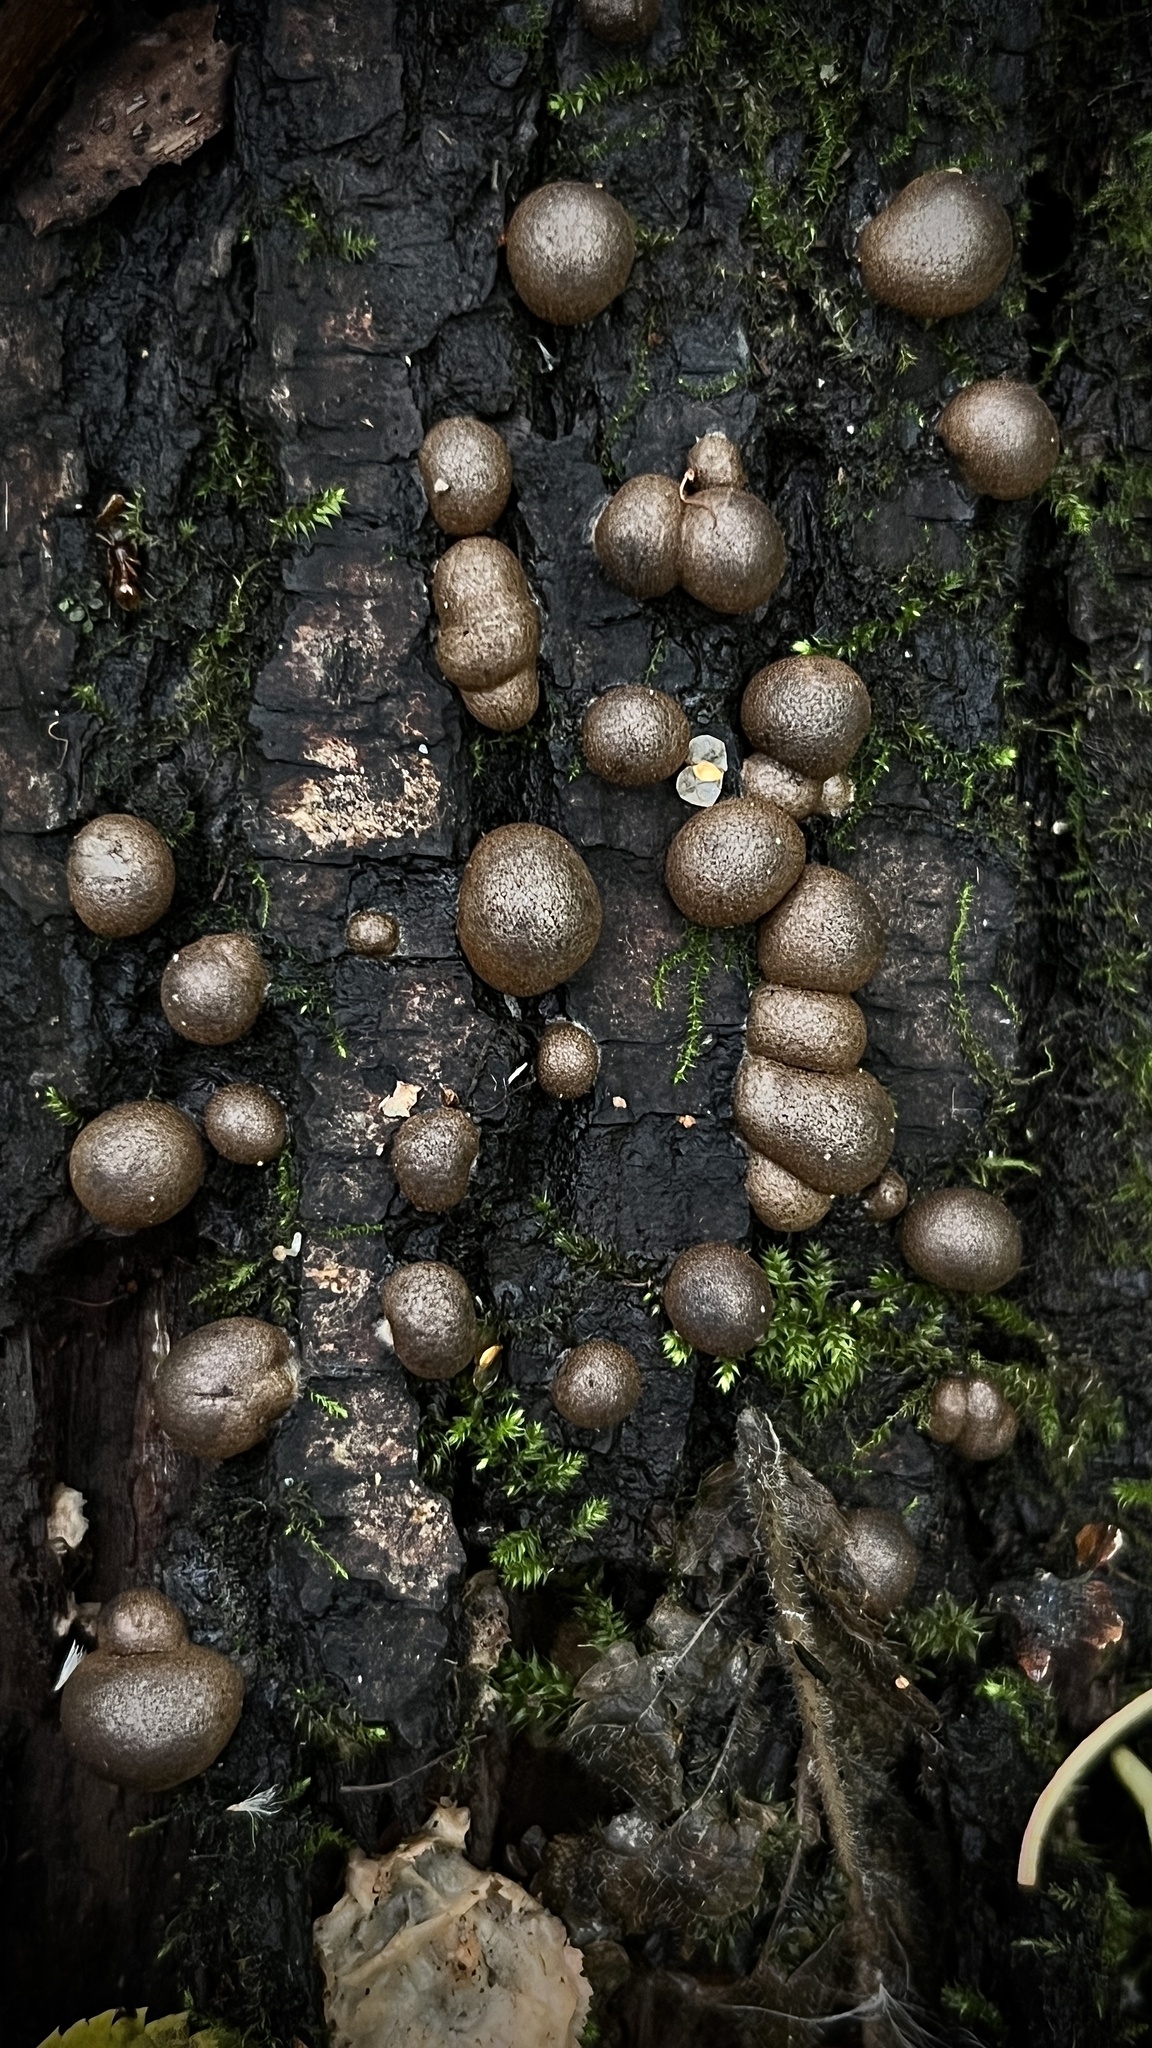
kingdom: Protozoa
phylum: Mycetozoa
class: Myxomycetes
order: Cribrariales
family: Tubiferaceae
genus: Lycogala
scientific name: Lycogala epidendrum
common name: Wolf's milk
